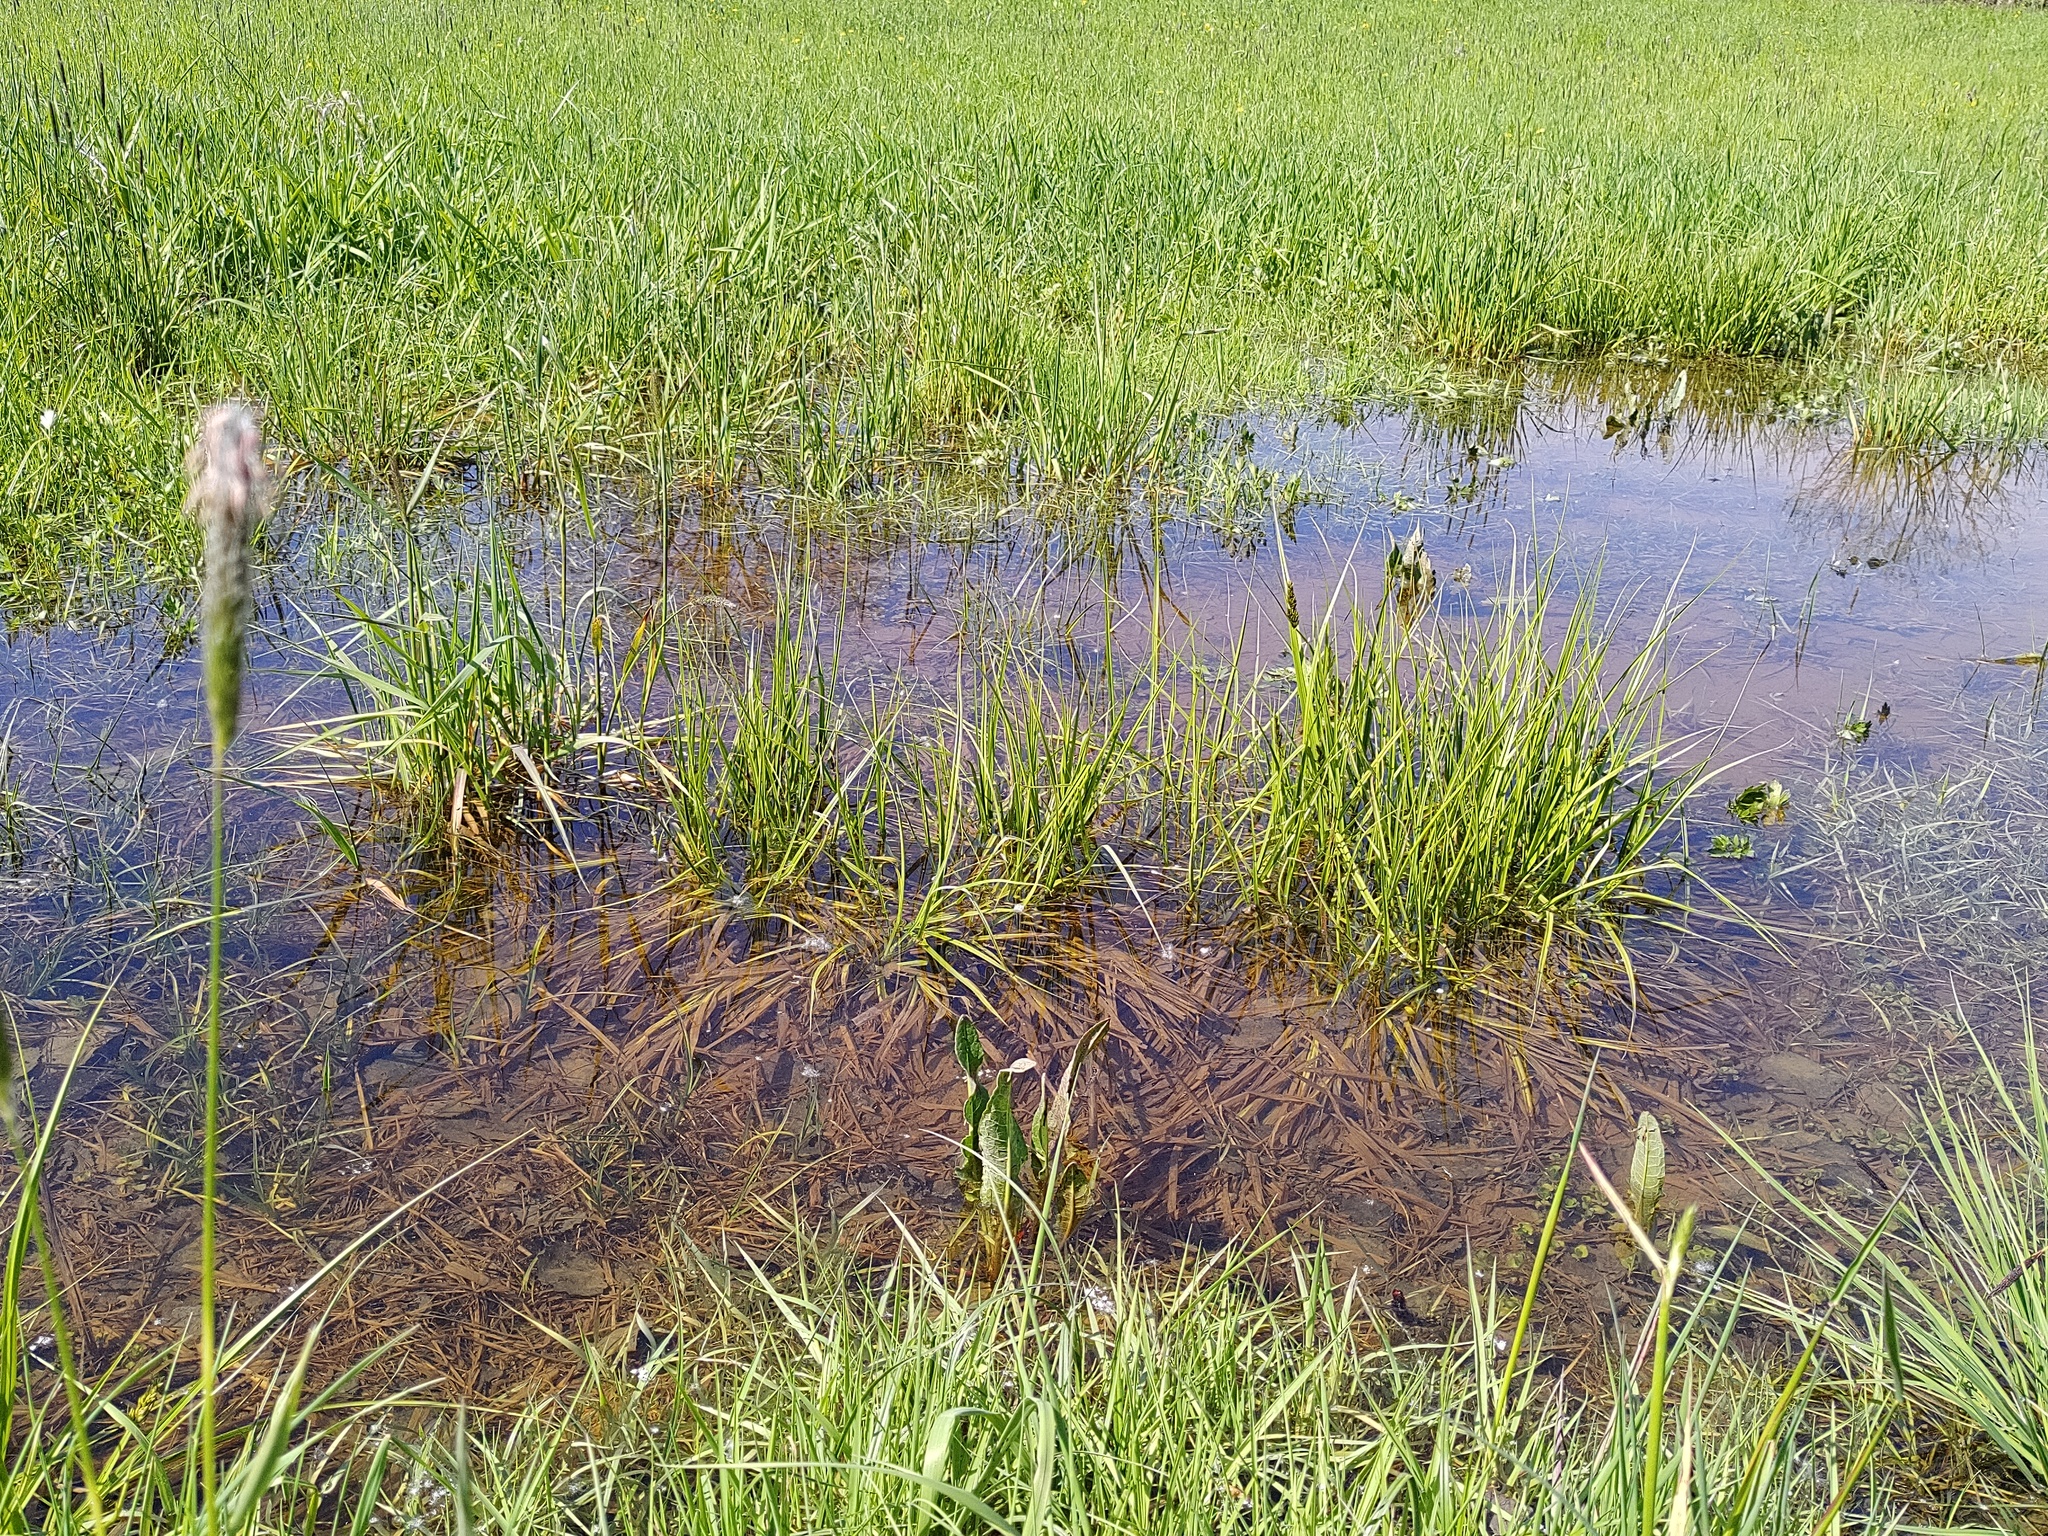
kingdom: Plantae
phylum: Tracheophyta
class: Liliopsida
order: Poales
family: Cyperaceae
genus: Carex
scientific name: Carex vulpina
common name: True fox-sedge
